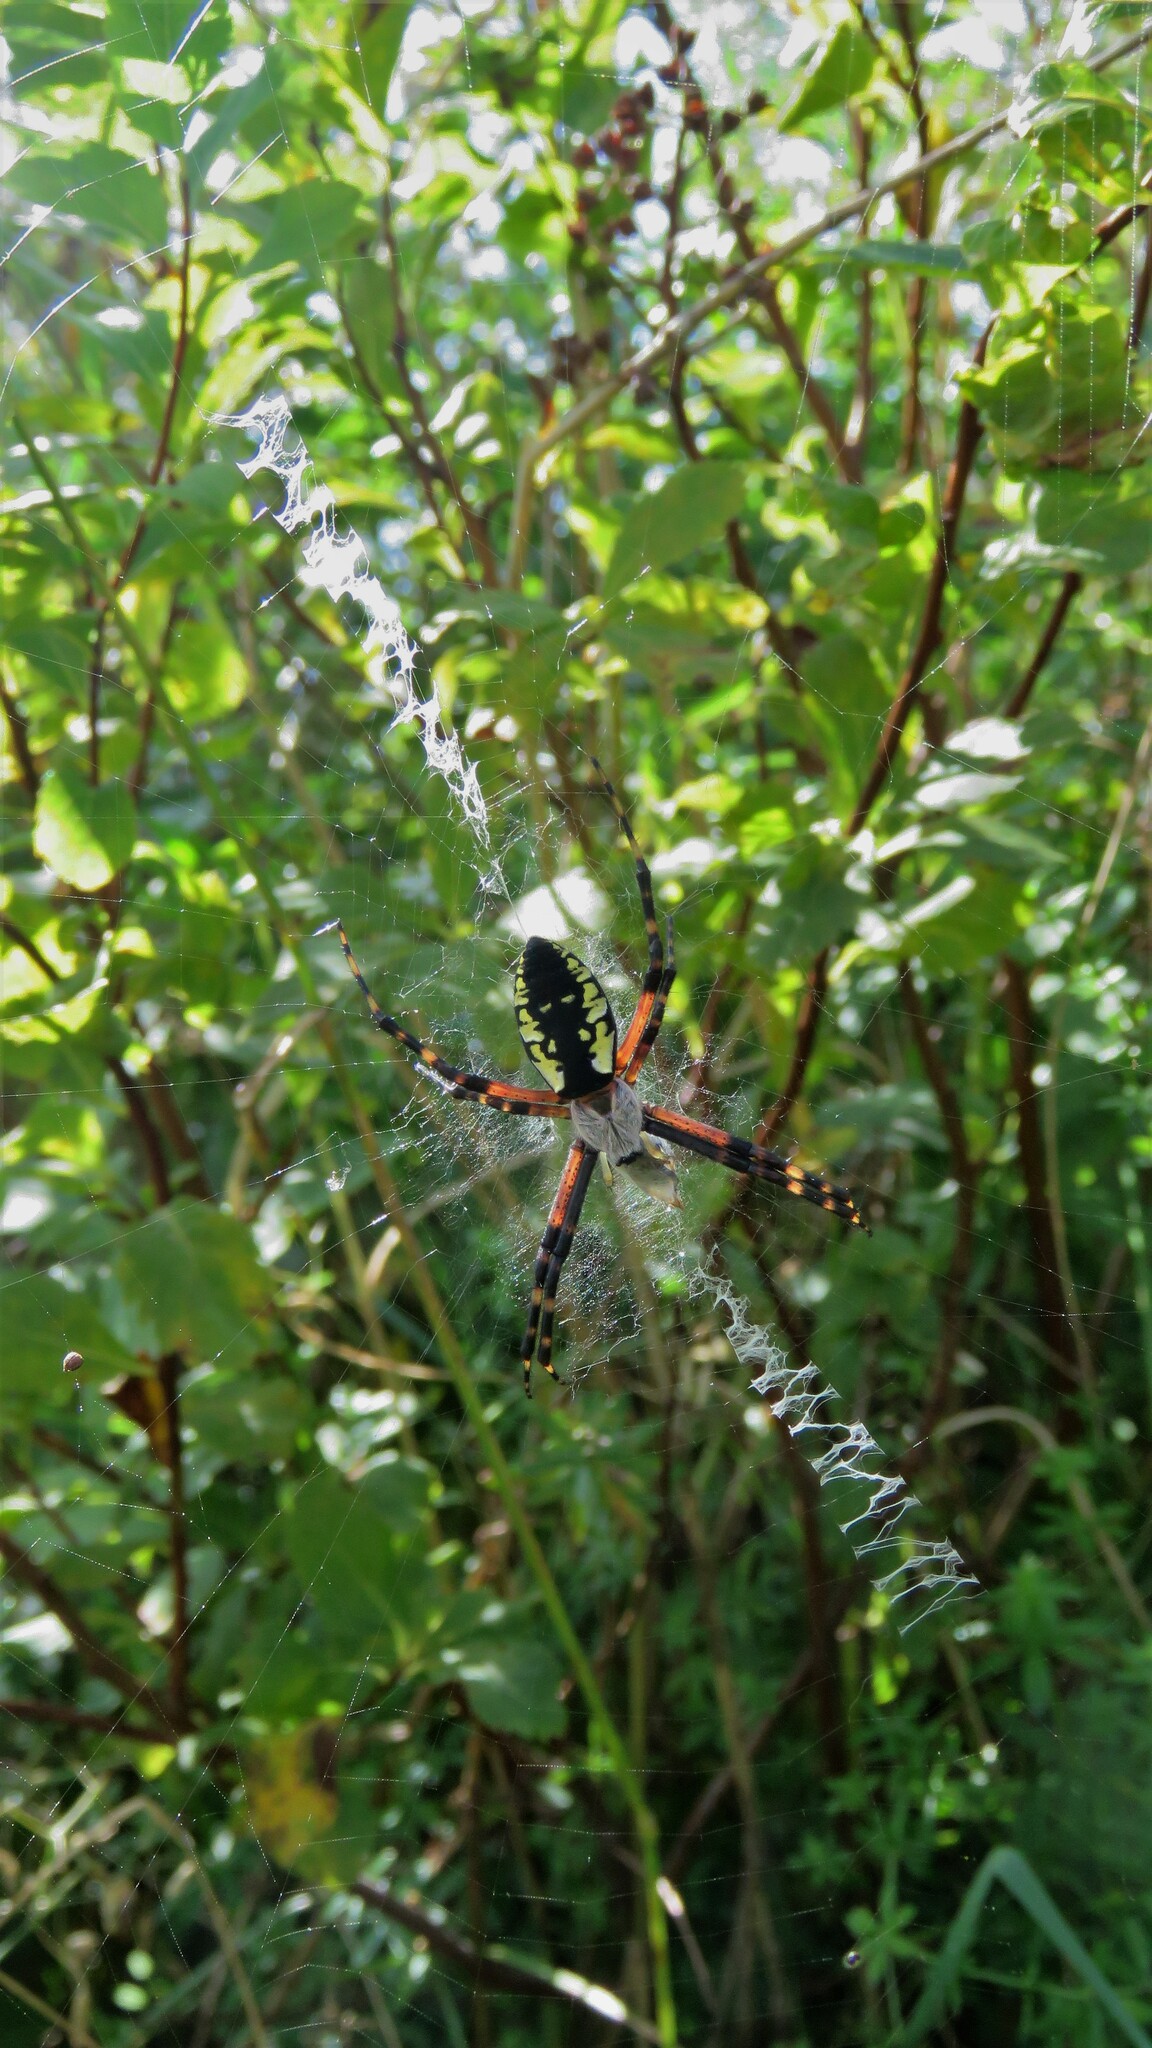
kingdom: Animalia
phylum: Arthropoda
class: Arachnida
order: Araneae
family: Araneidae
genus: Argiope
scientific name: Argiope aurantia
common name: Orb weavers
